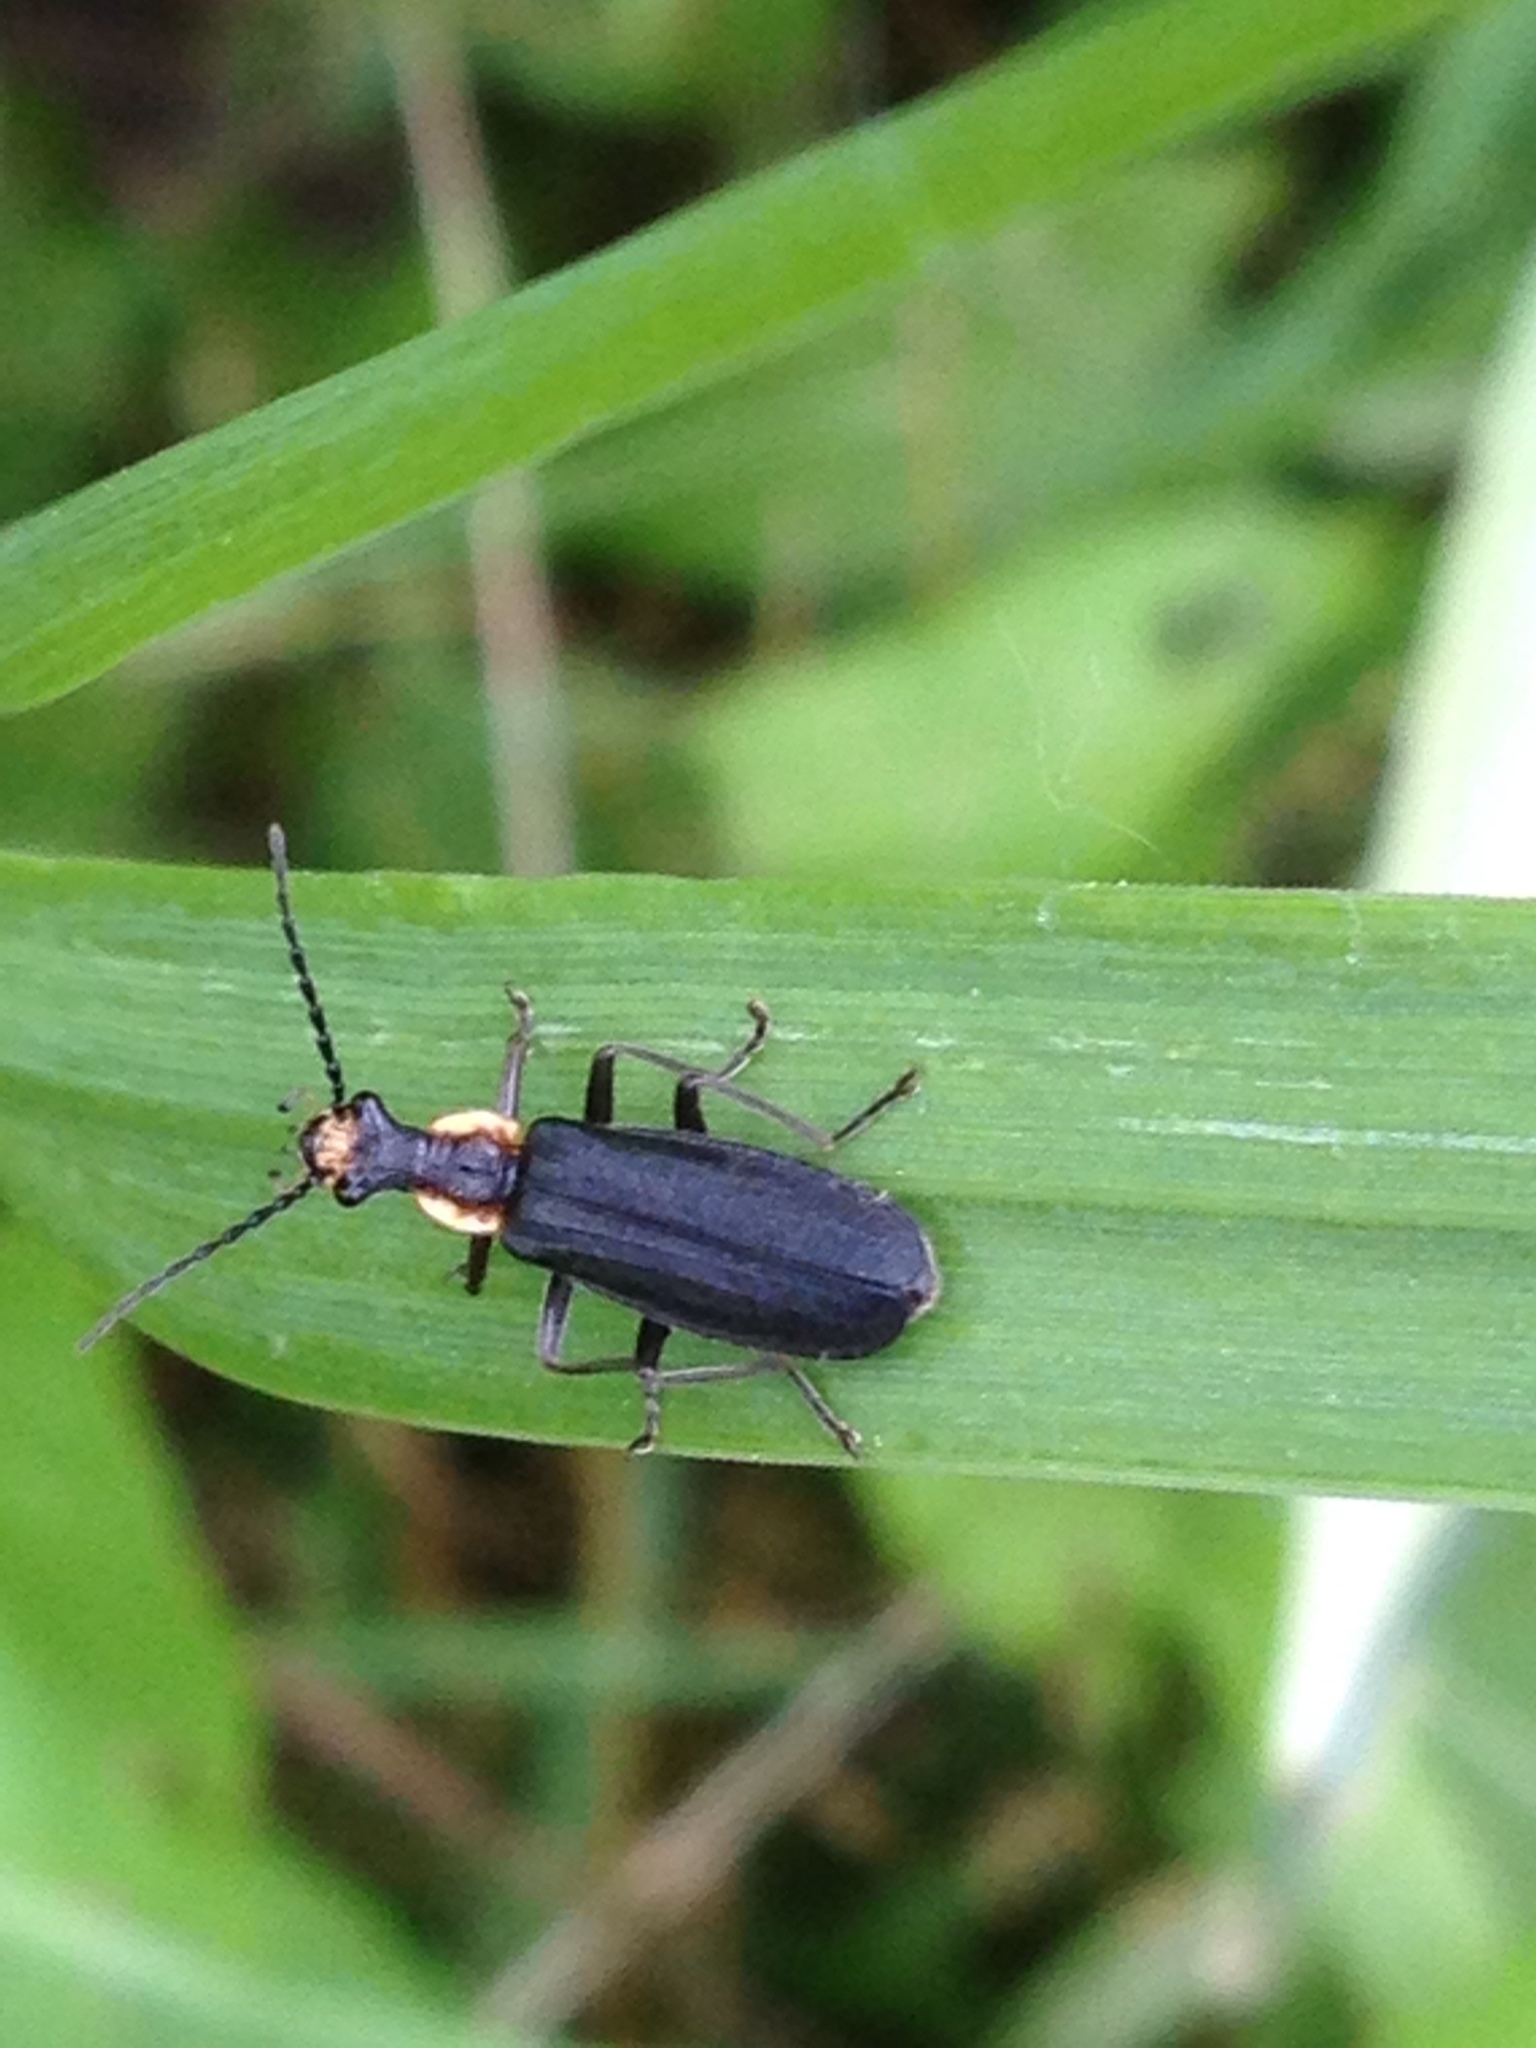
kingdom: Animalia
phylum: Arthropoda
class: Insecta
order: Coleoptera
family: Cantharidae
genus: Podabrus
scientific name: Podabrus rugosulus
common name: Wrinkled soldier beetle
